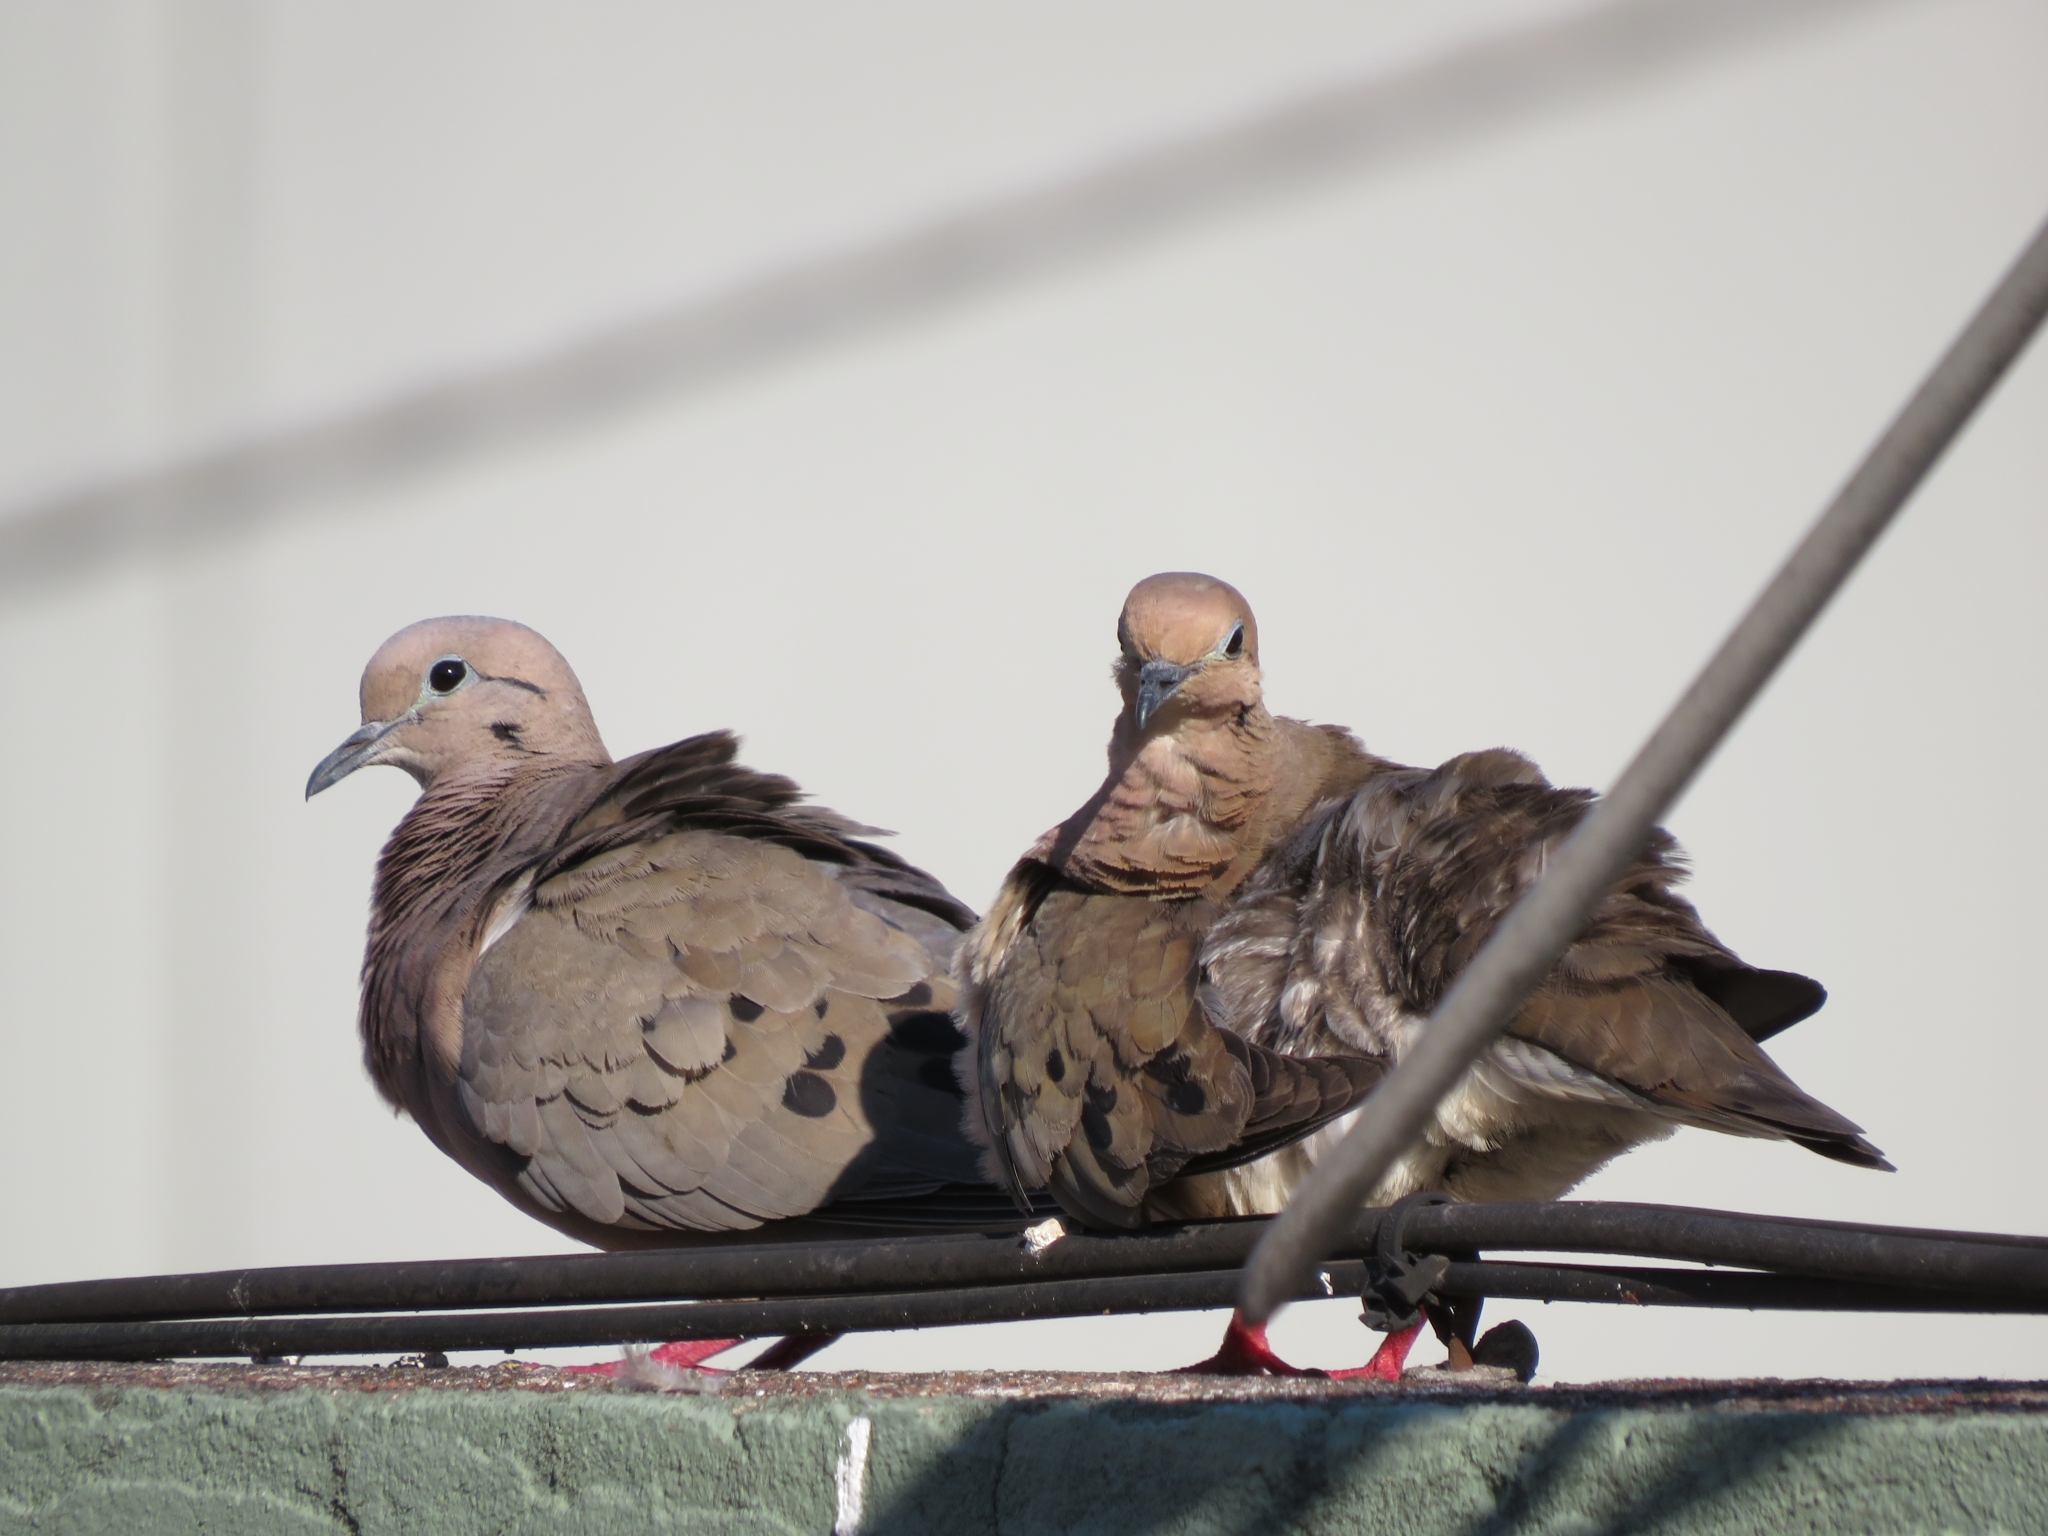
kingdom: Animalia
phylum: Chordata
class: Aves
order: Columbiformes
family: Columbidae
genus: Zenaida
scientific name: Zenaida auriculata
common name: Eared dove
